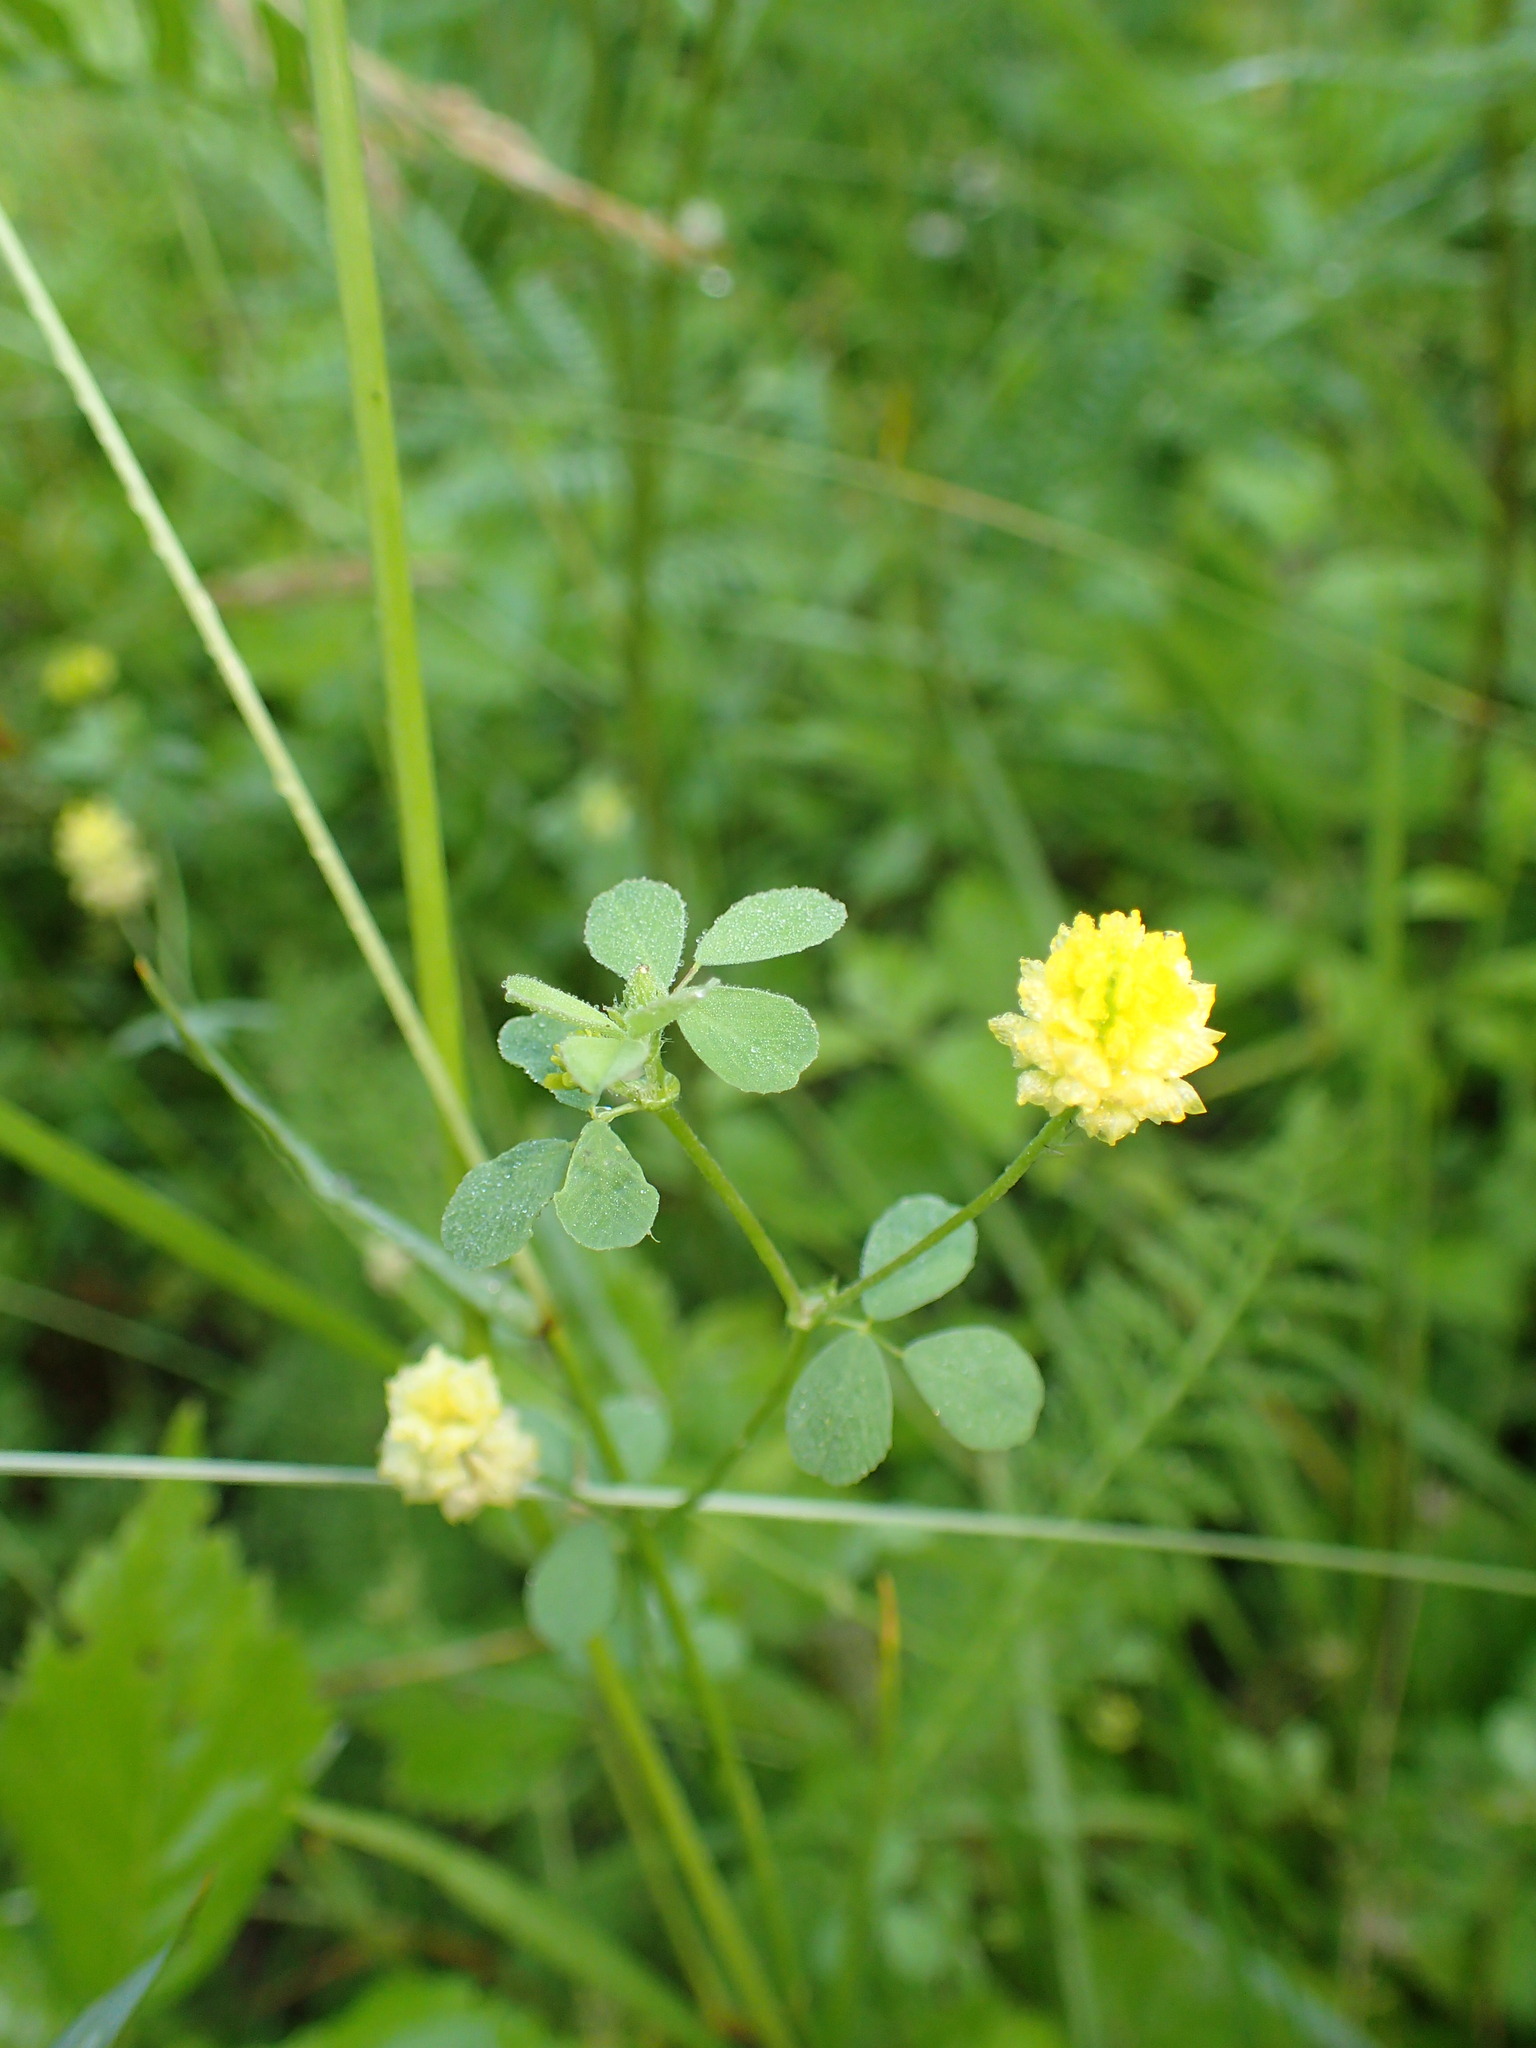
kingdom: Plantae
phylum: Tracheophyta
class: Magnoliopsida
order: Fabales
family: Fabaceae
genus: Trifolium
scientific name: Trifolium campestre
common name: Field clover
